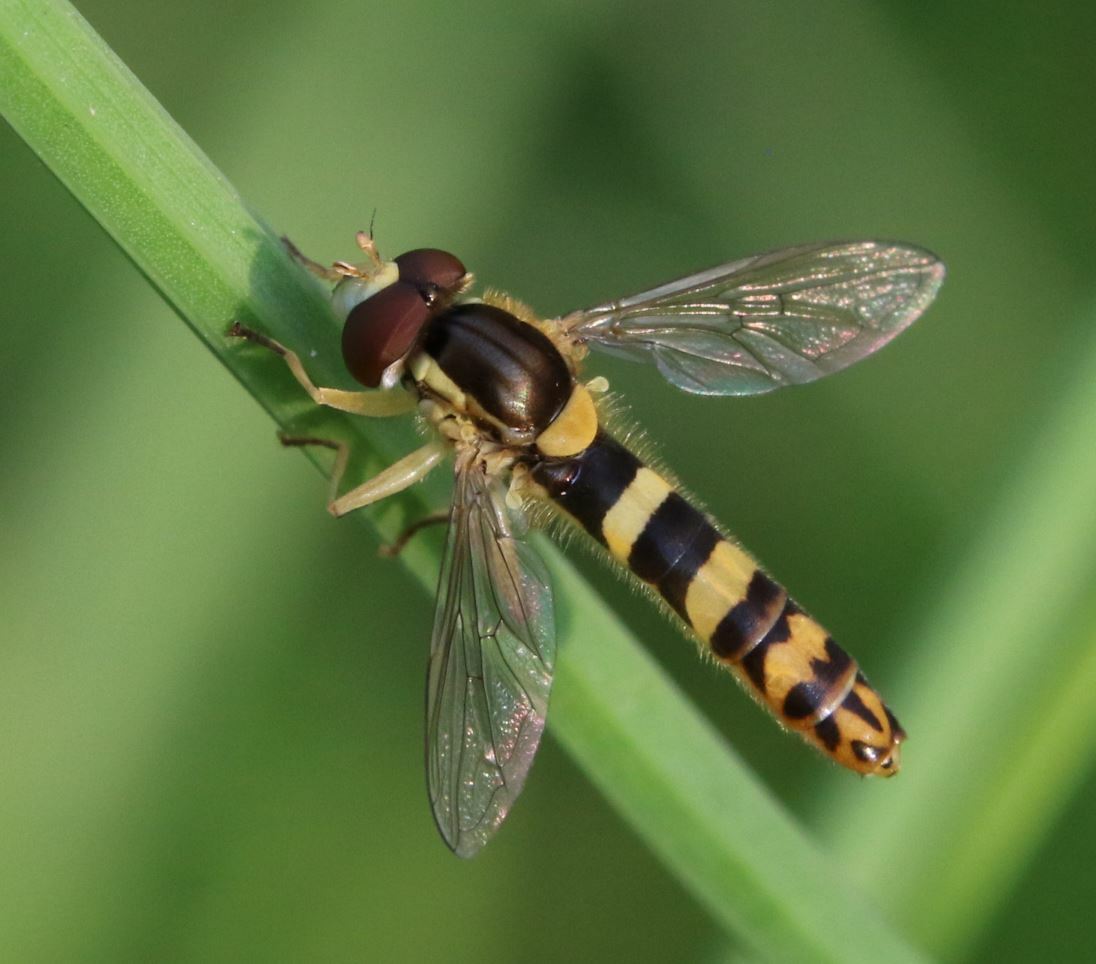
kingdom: Animalia
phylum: Arthropoda
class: Insecta
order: Diptera
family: Syrphidae
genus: Sphaerophoria
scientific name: Sphaerophoria scripta
